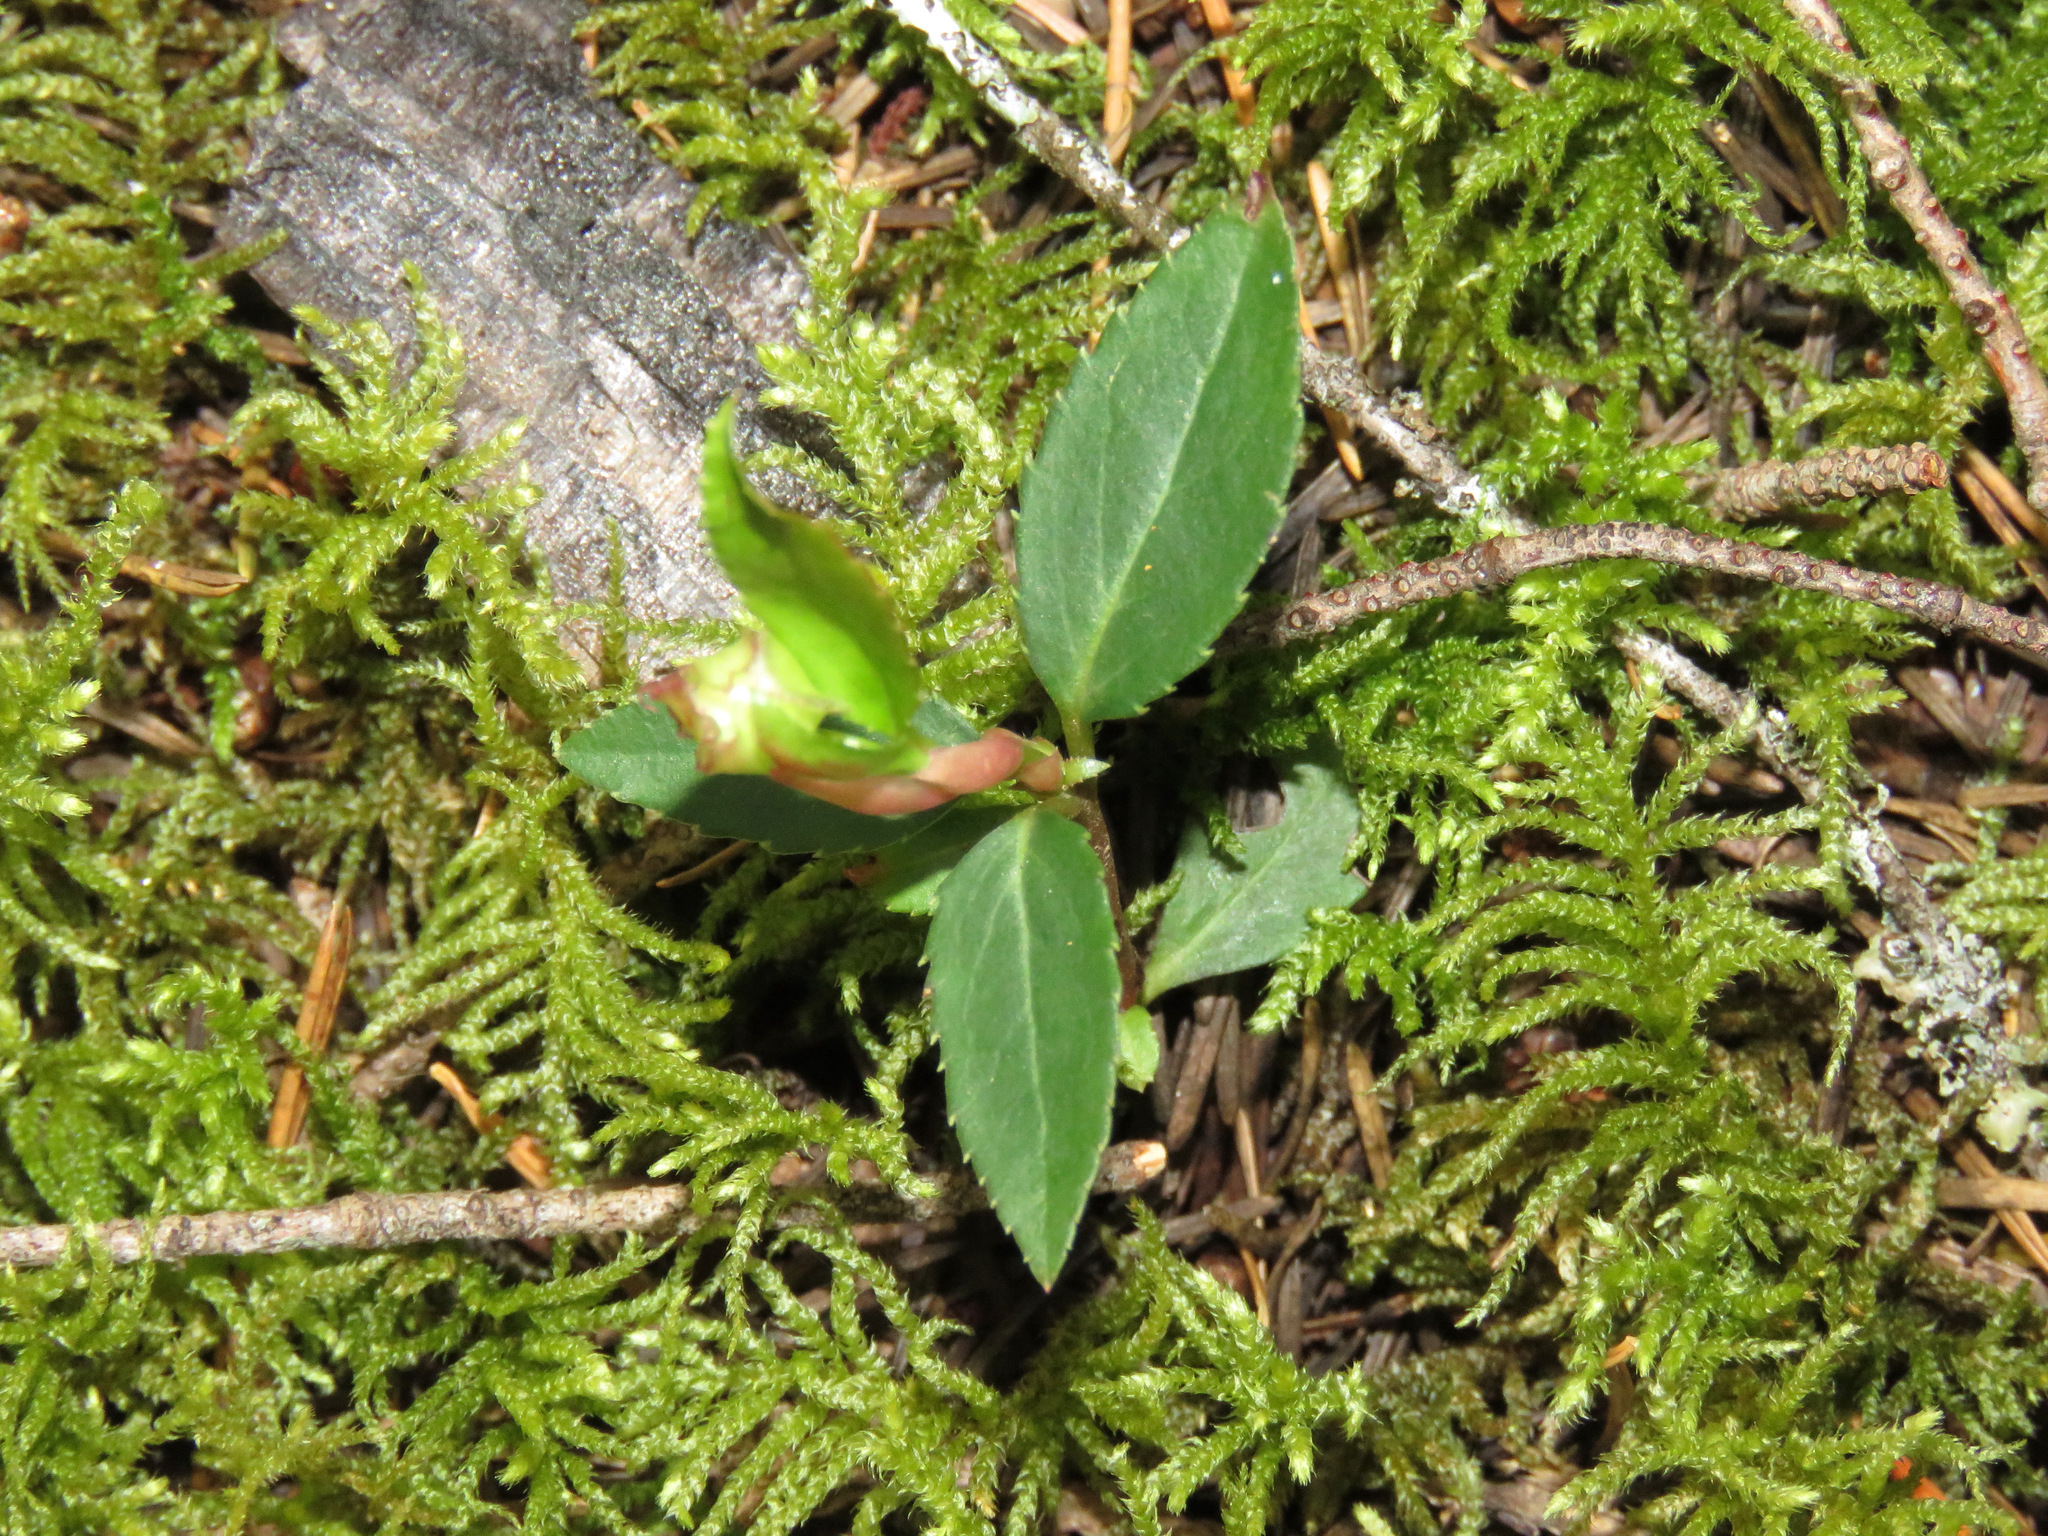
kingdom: Plantae
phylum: Tracheophyta
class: Magnoliopsida
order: Ericales
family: Ericaceae
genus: Chimaphila
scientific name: Chimaphila menziesii
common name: Menzies' pipsissewa
